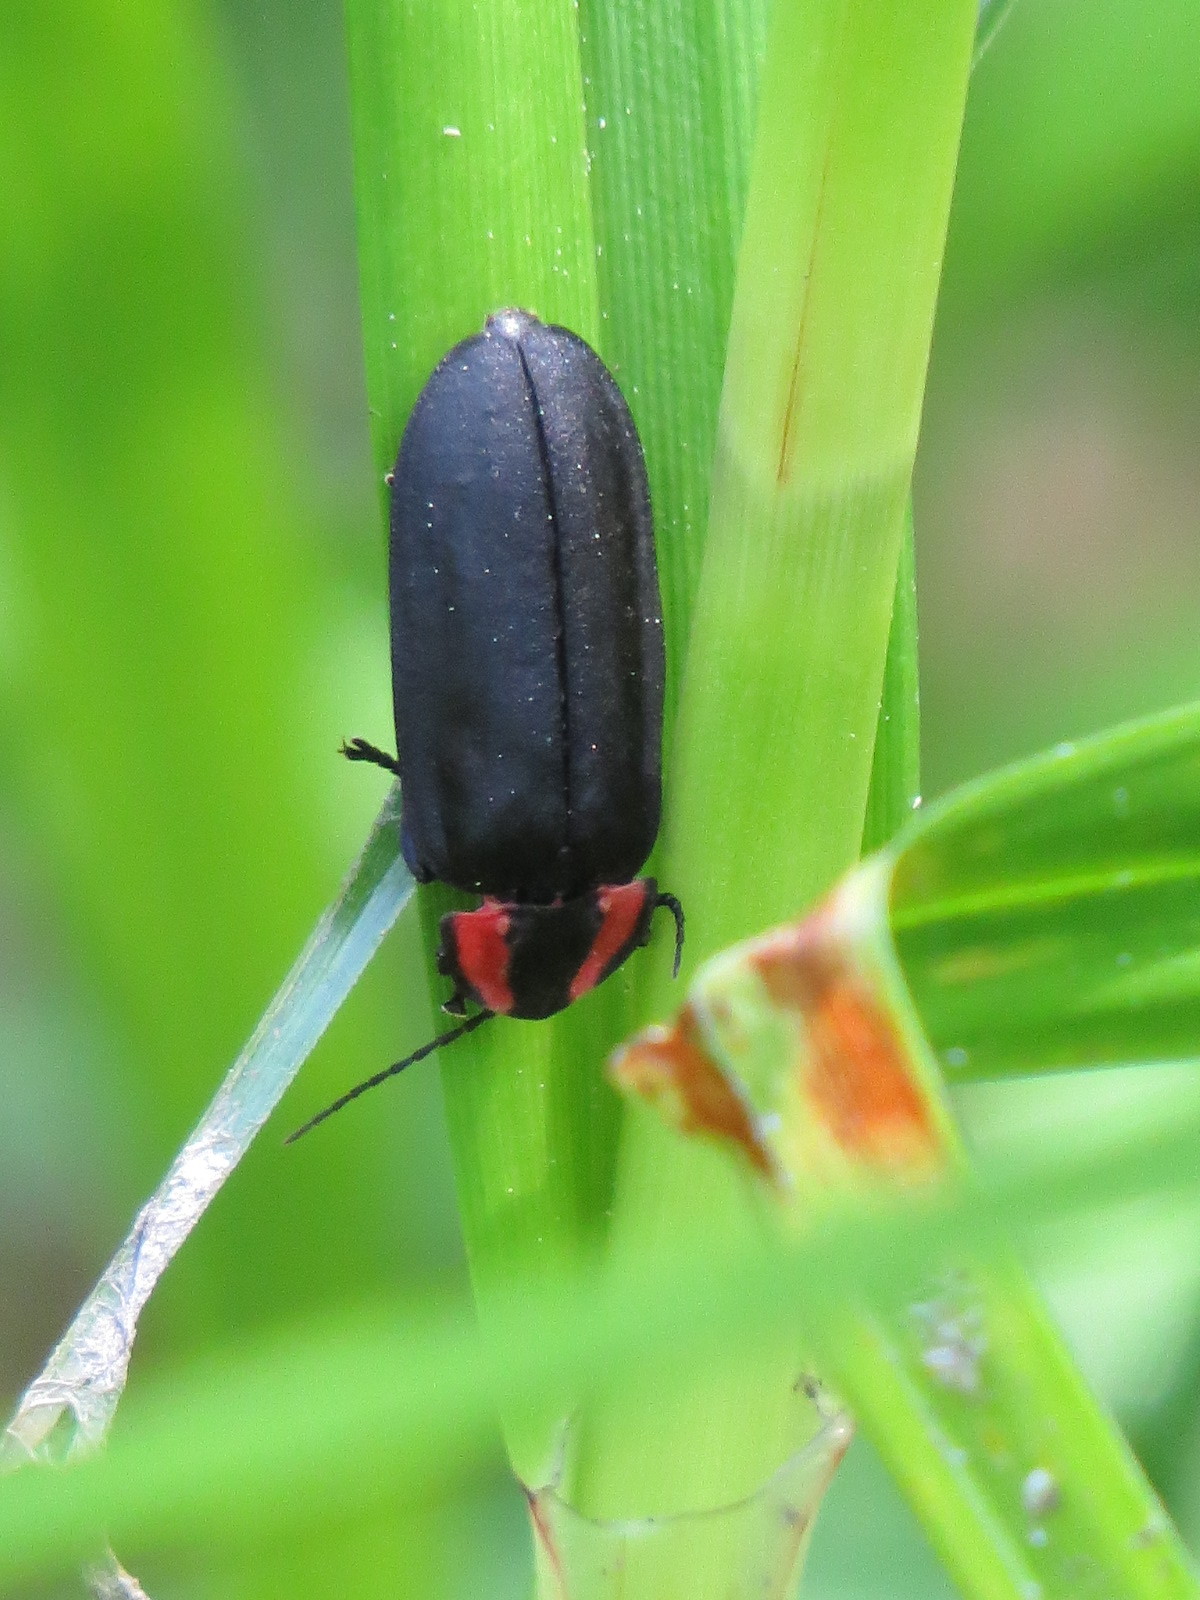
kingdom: Animalia
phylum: Arthropoda
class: Insecta
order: Coleoptera
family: Lampyridae
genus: Photinus
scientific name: Photinus californica
